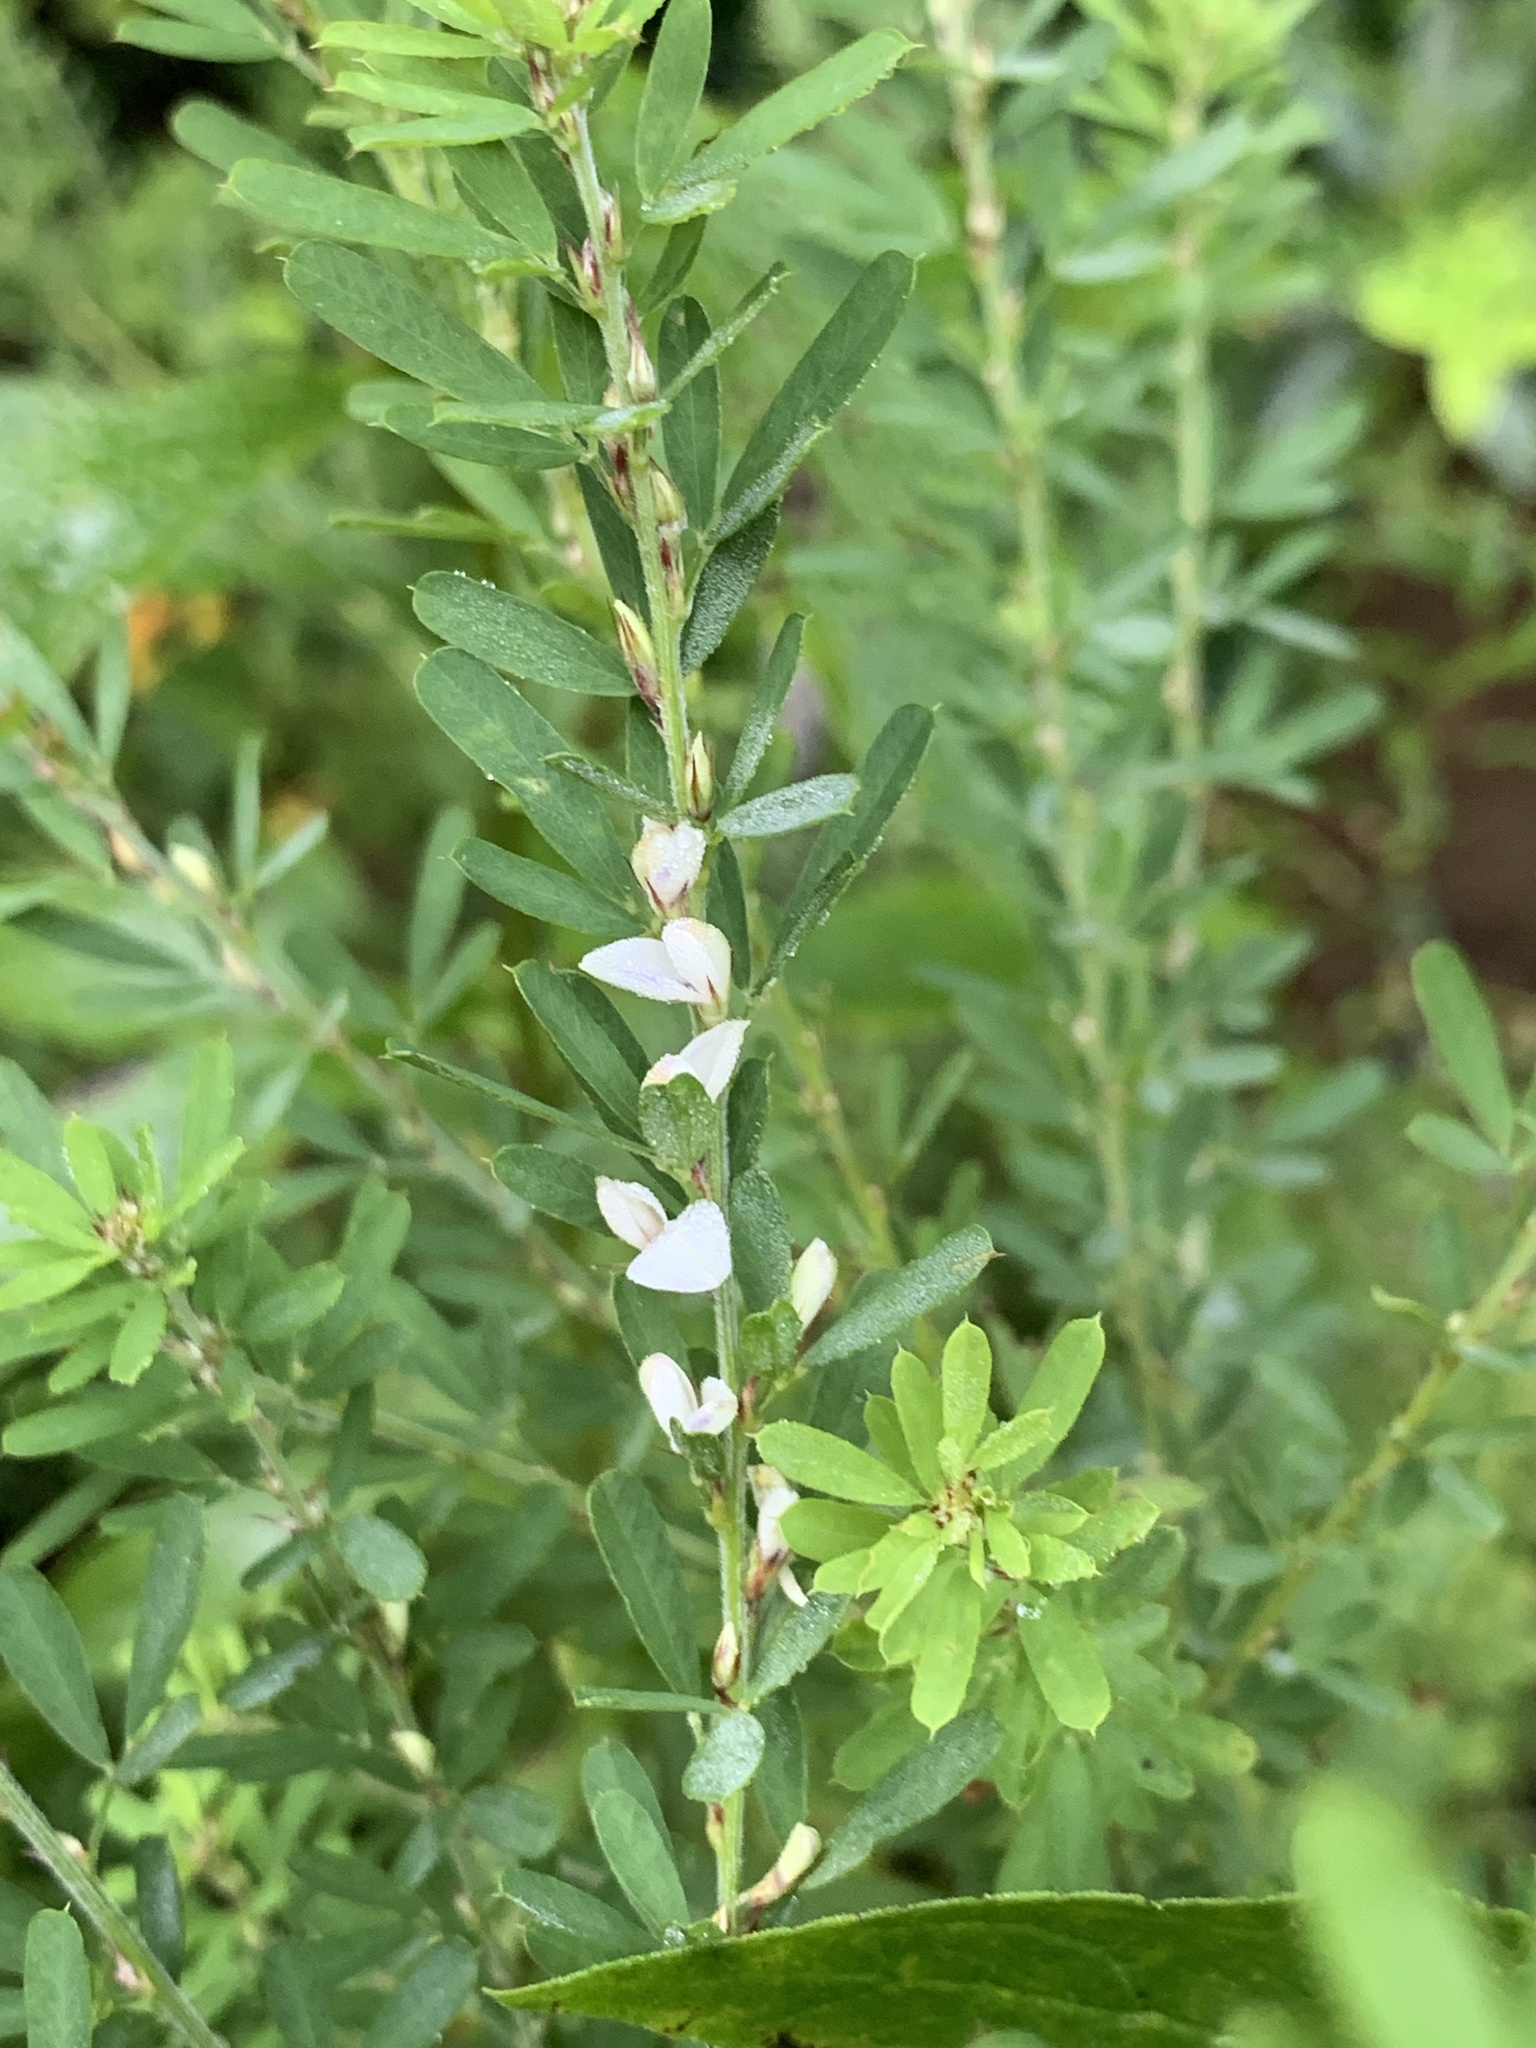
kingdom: Plantae
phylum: Tracheophyta
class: Magnoliopsida
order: Fabales
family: Fabaceae
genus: Lespedeza
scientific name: Lespedeza cuneata
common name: Chinese bush-clover
